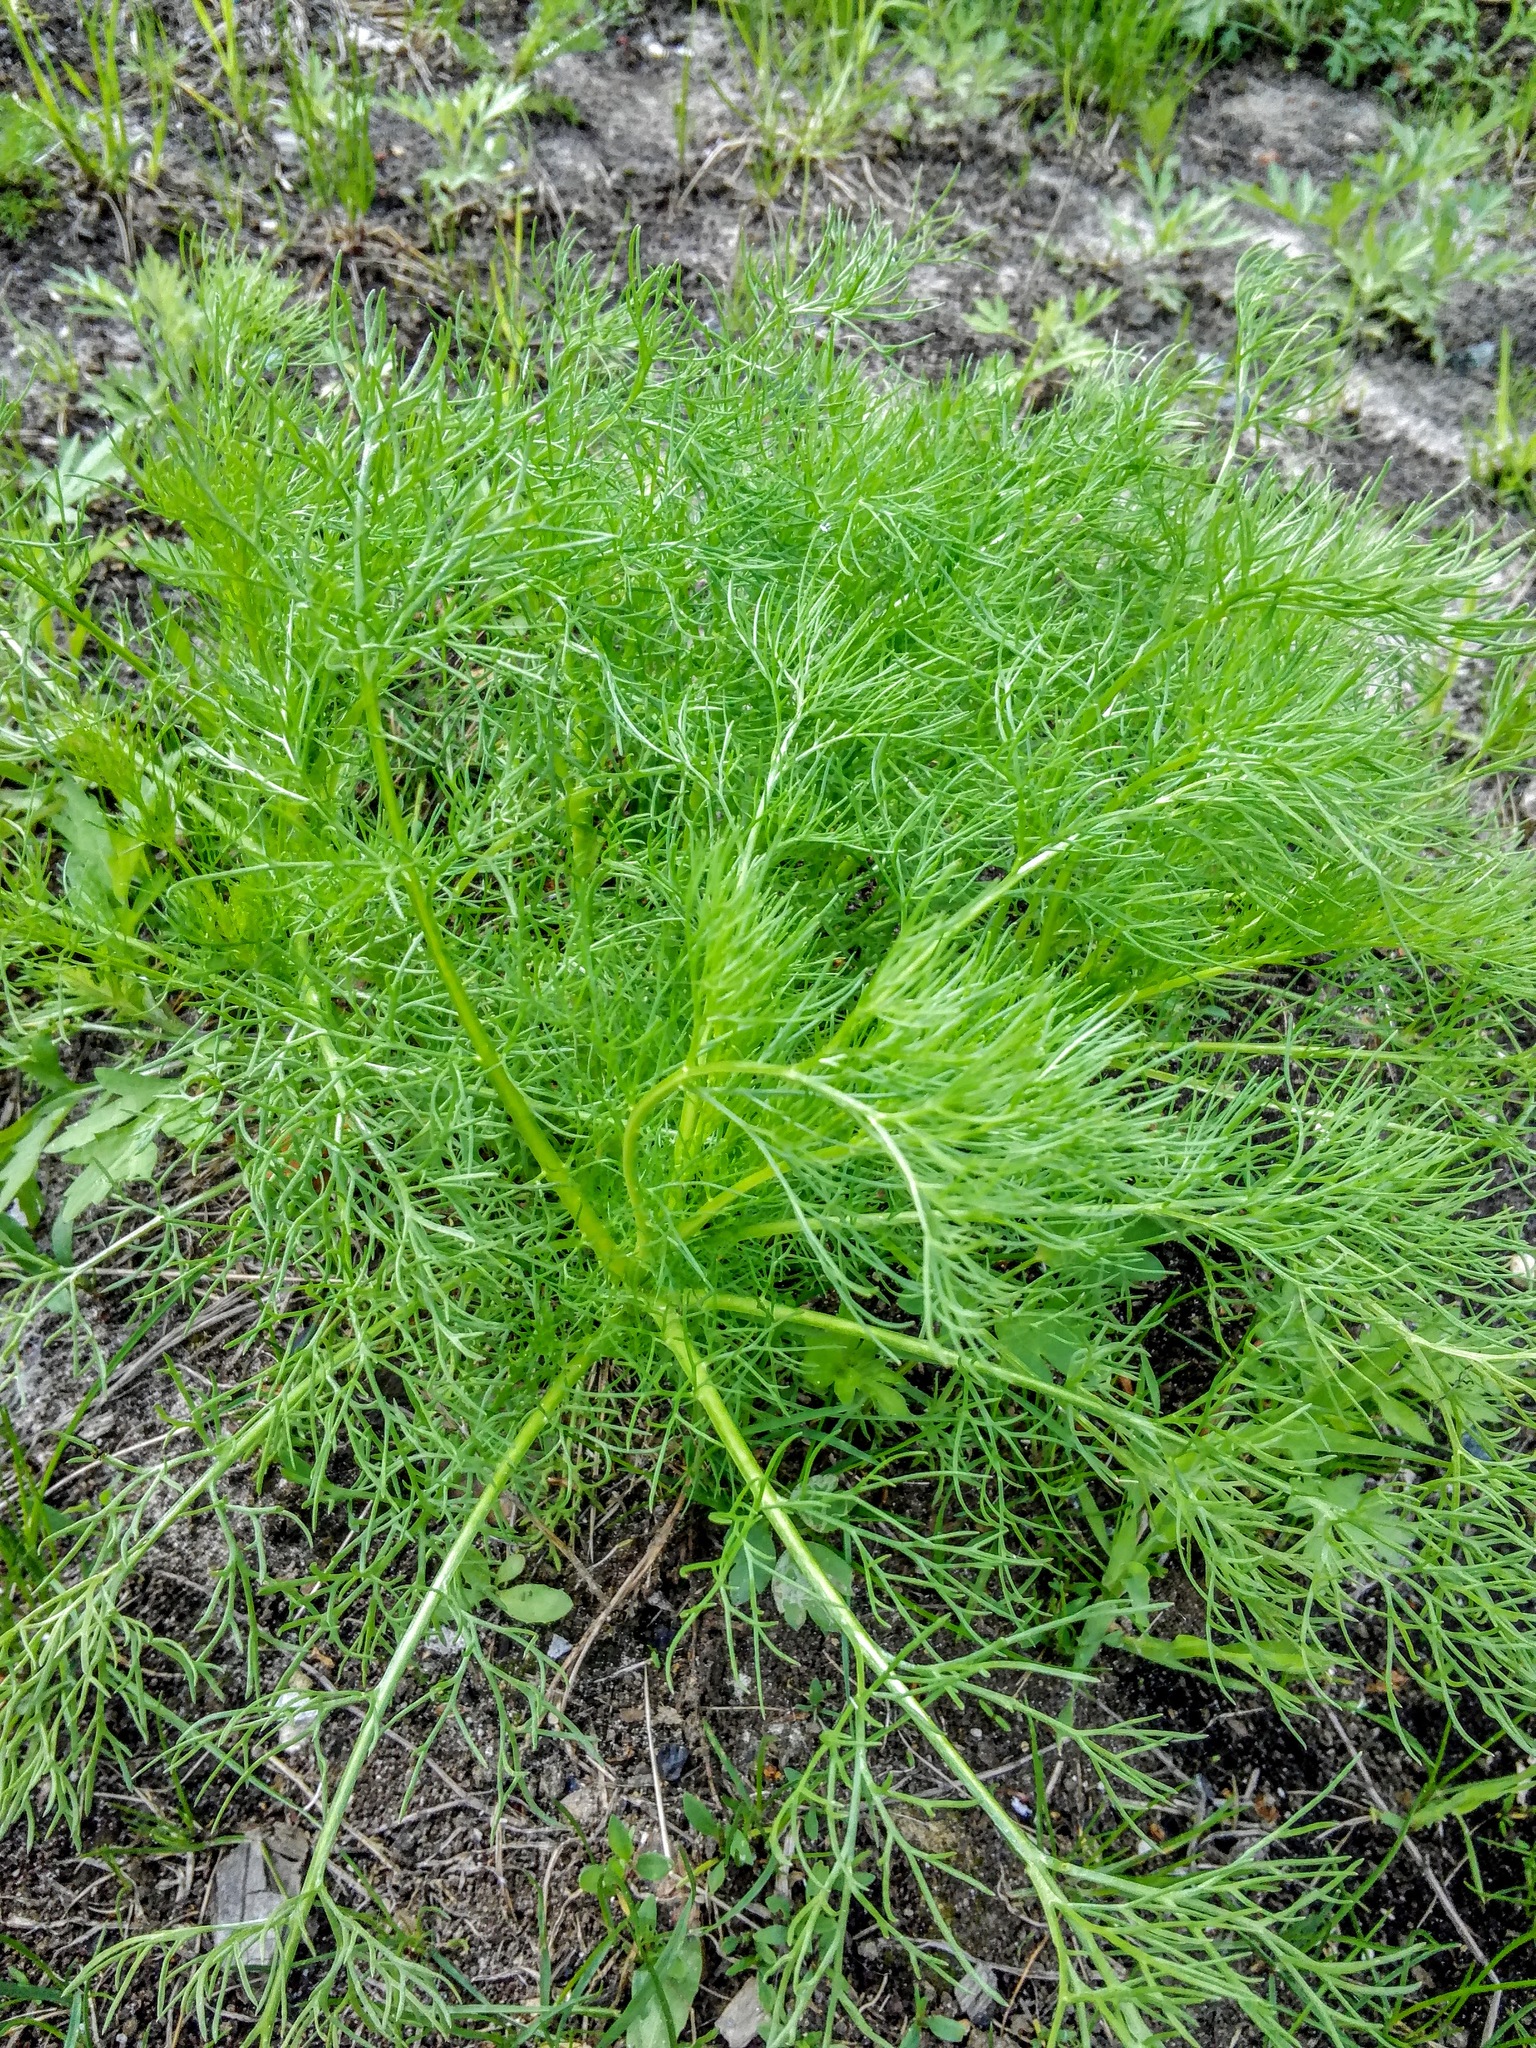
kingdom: Plantae
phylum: Tracheophyta
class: Magnoliopsida
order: Asterales
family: Asteraceae
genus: Tripleurospermum
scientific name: Tripleurospermum inodorum
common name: Scentless mayweed
